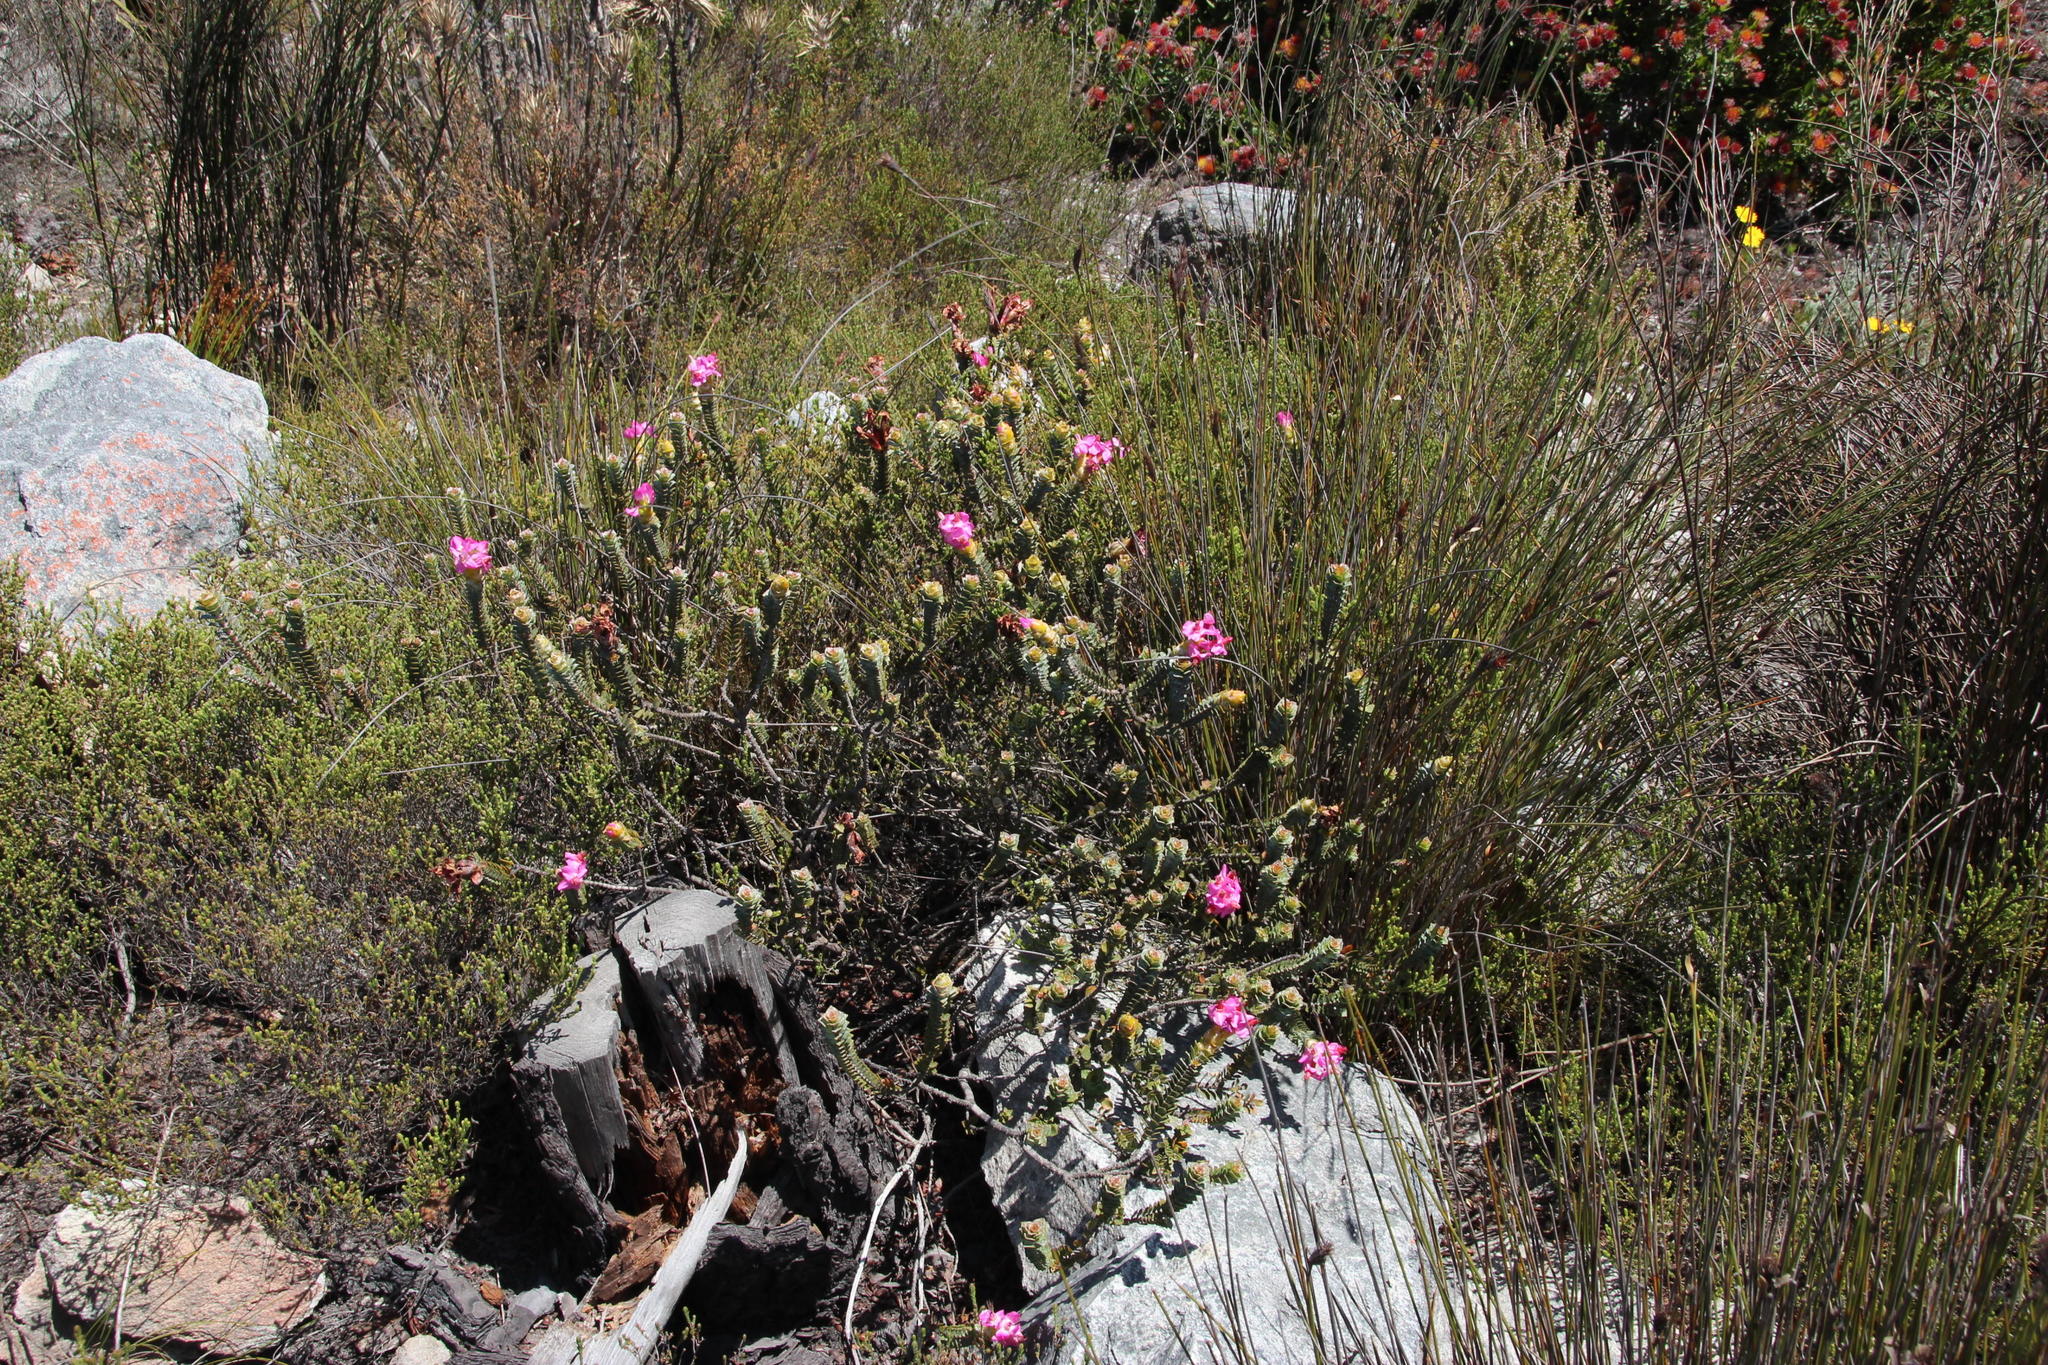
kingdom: Plantae
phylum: Tracheophyta
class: Magnoliopsida
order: Myrtales
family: Penaeaceae
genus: Saltera
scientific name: Saltera sarcocolla
